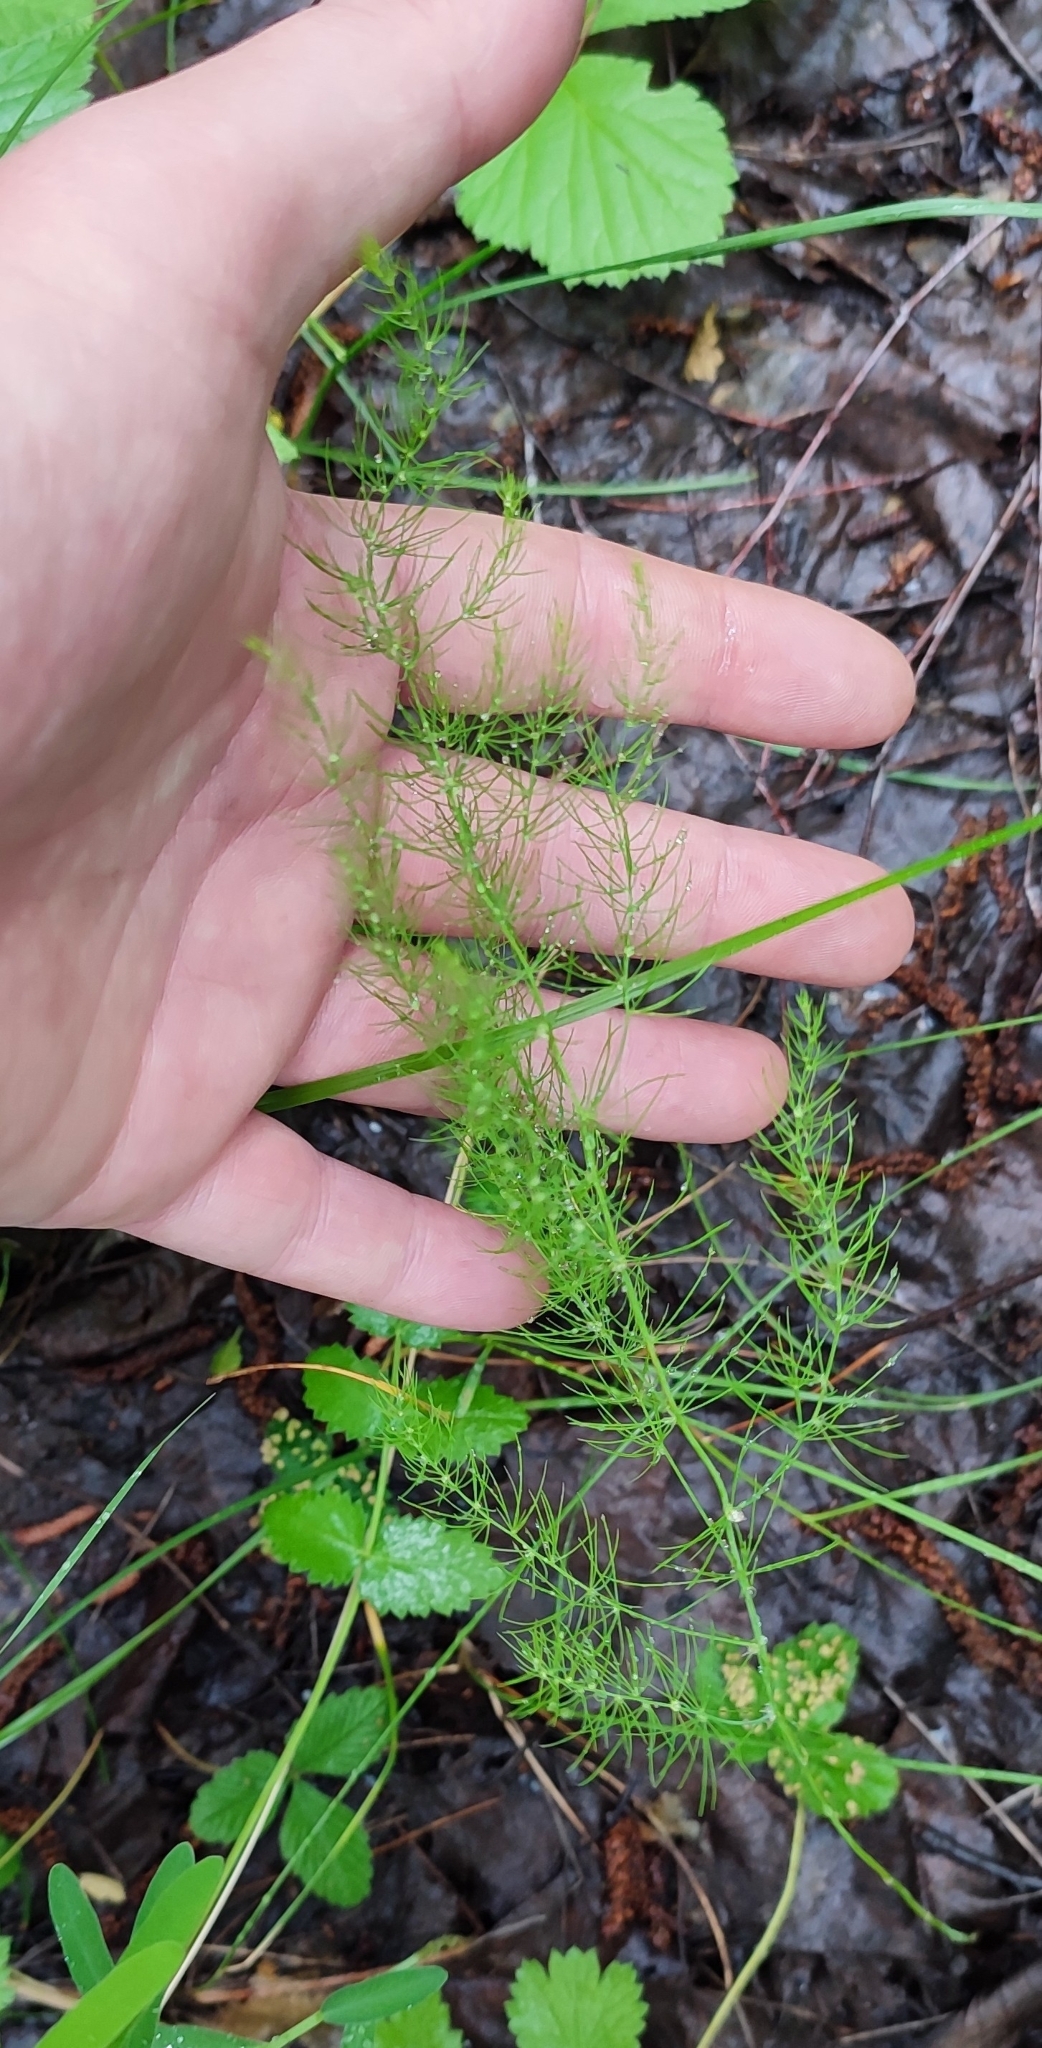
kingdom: Plantae
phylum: Tracheophyta
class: Liliopsida
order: Asparagales
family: Asparagaceae
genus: Asparagus
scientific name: Asparagus officinalis
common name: Garden asparagus
